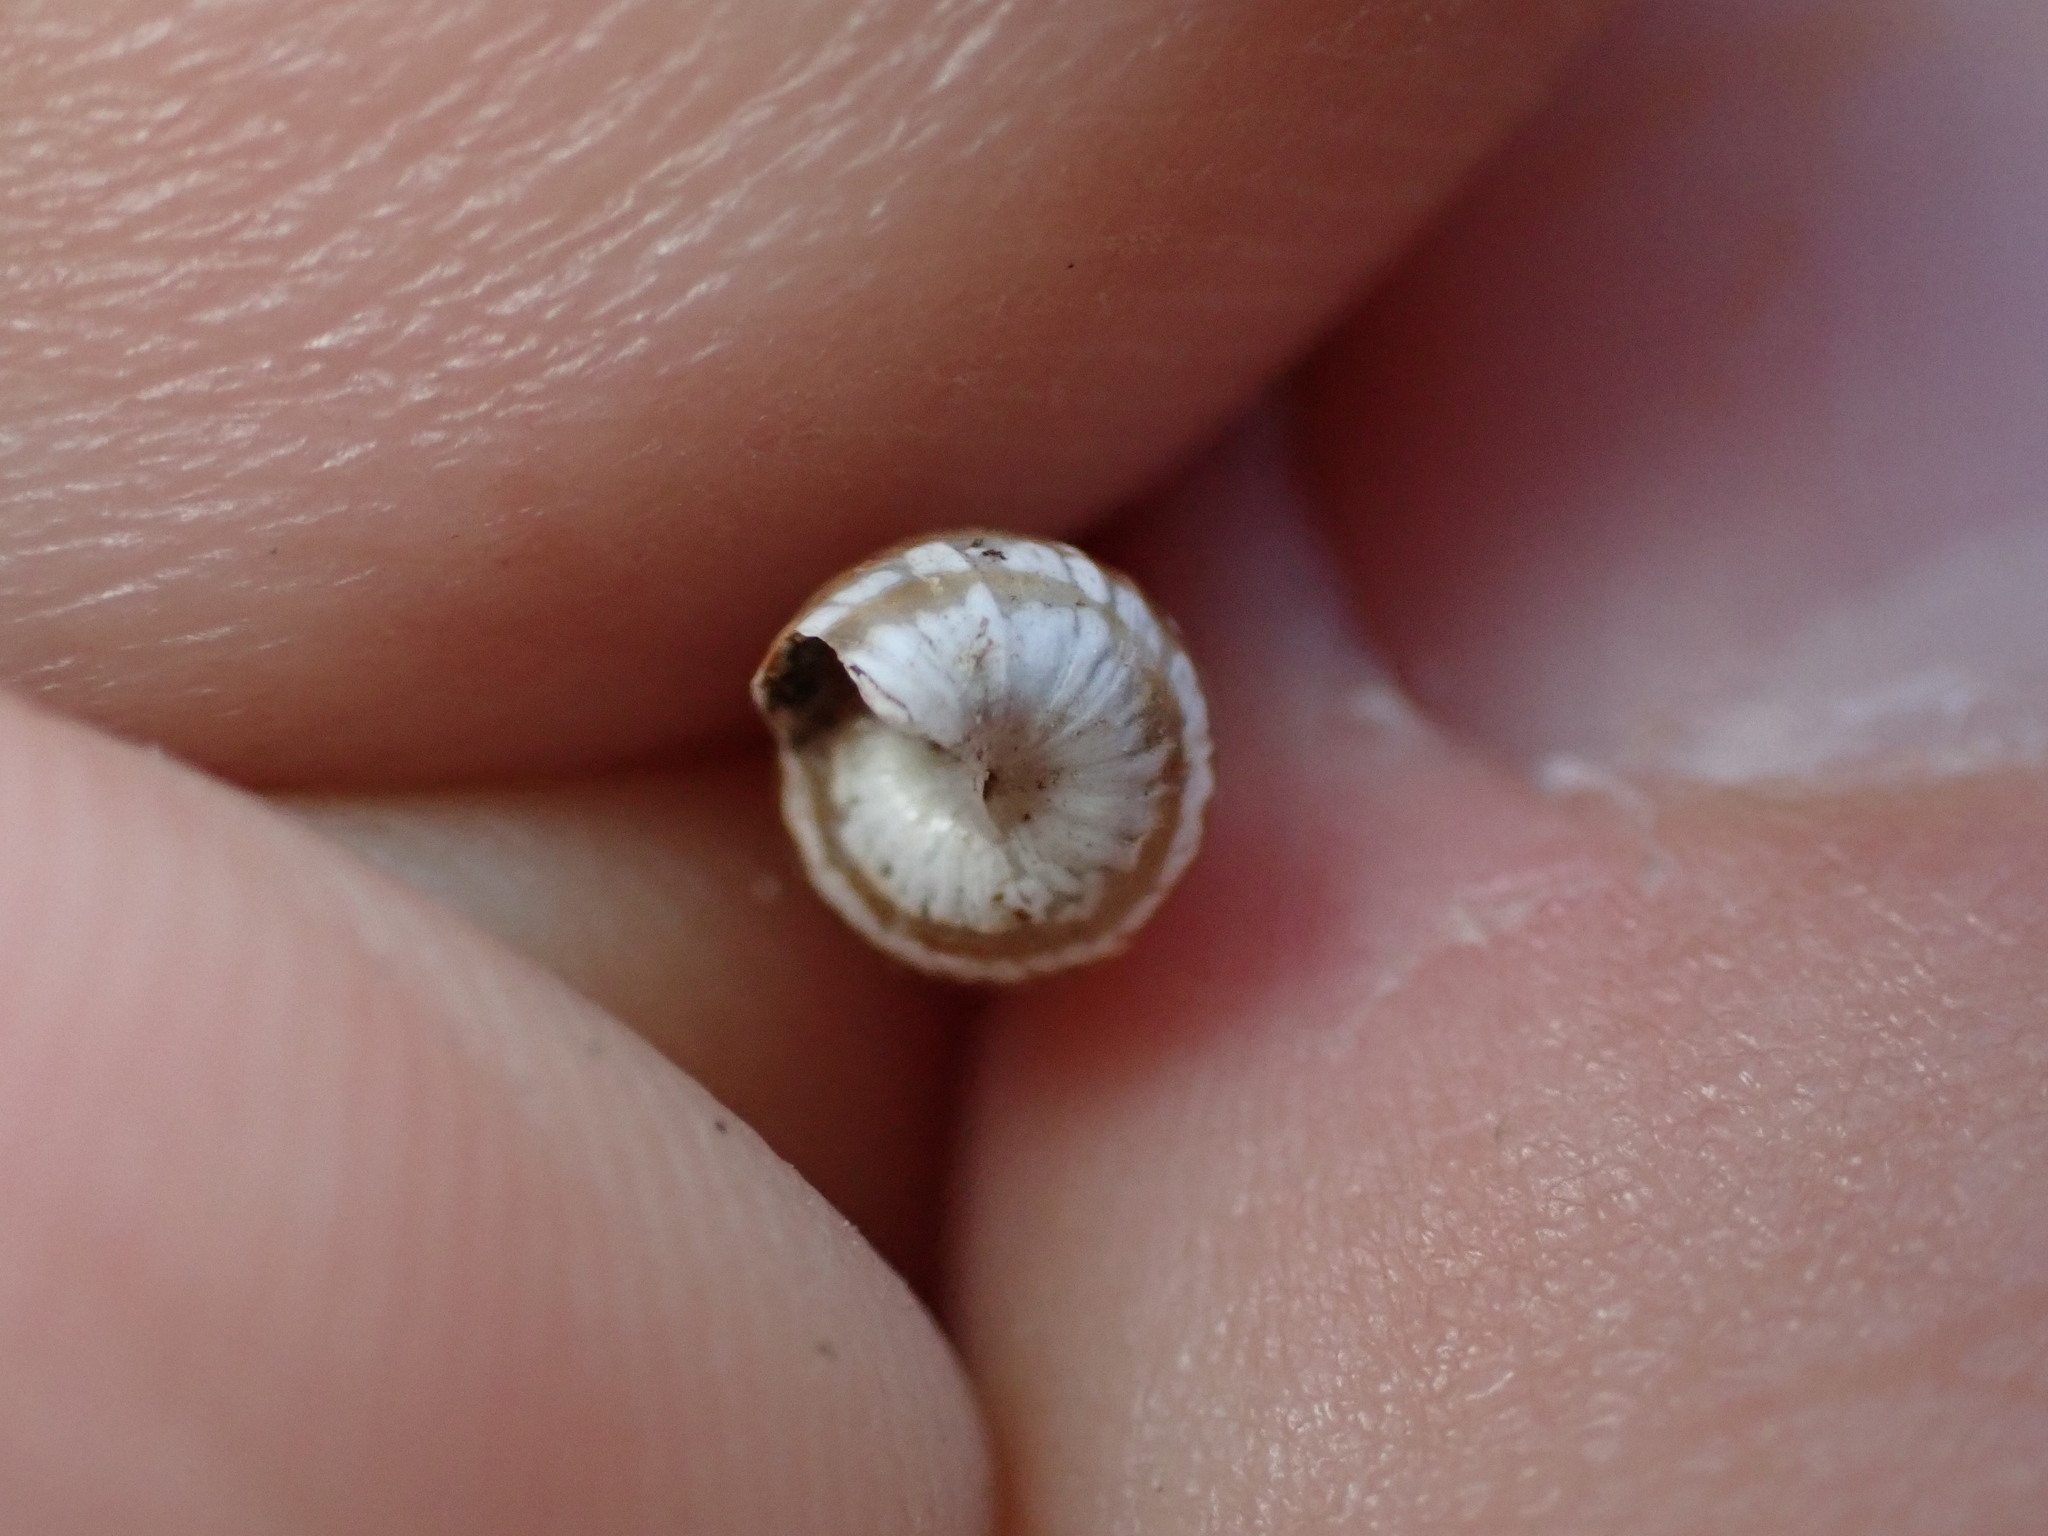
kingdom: Animalia
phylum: Mollusca
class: Gastropoda
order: Stylommatophora
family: Geomitridae
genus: Cochlicella
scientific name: Cochlicella acuta
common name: Pointed snail
